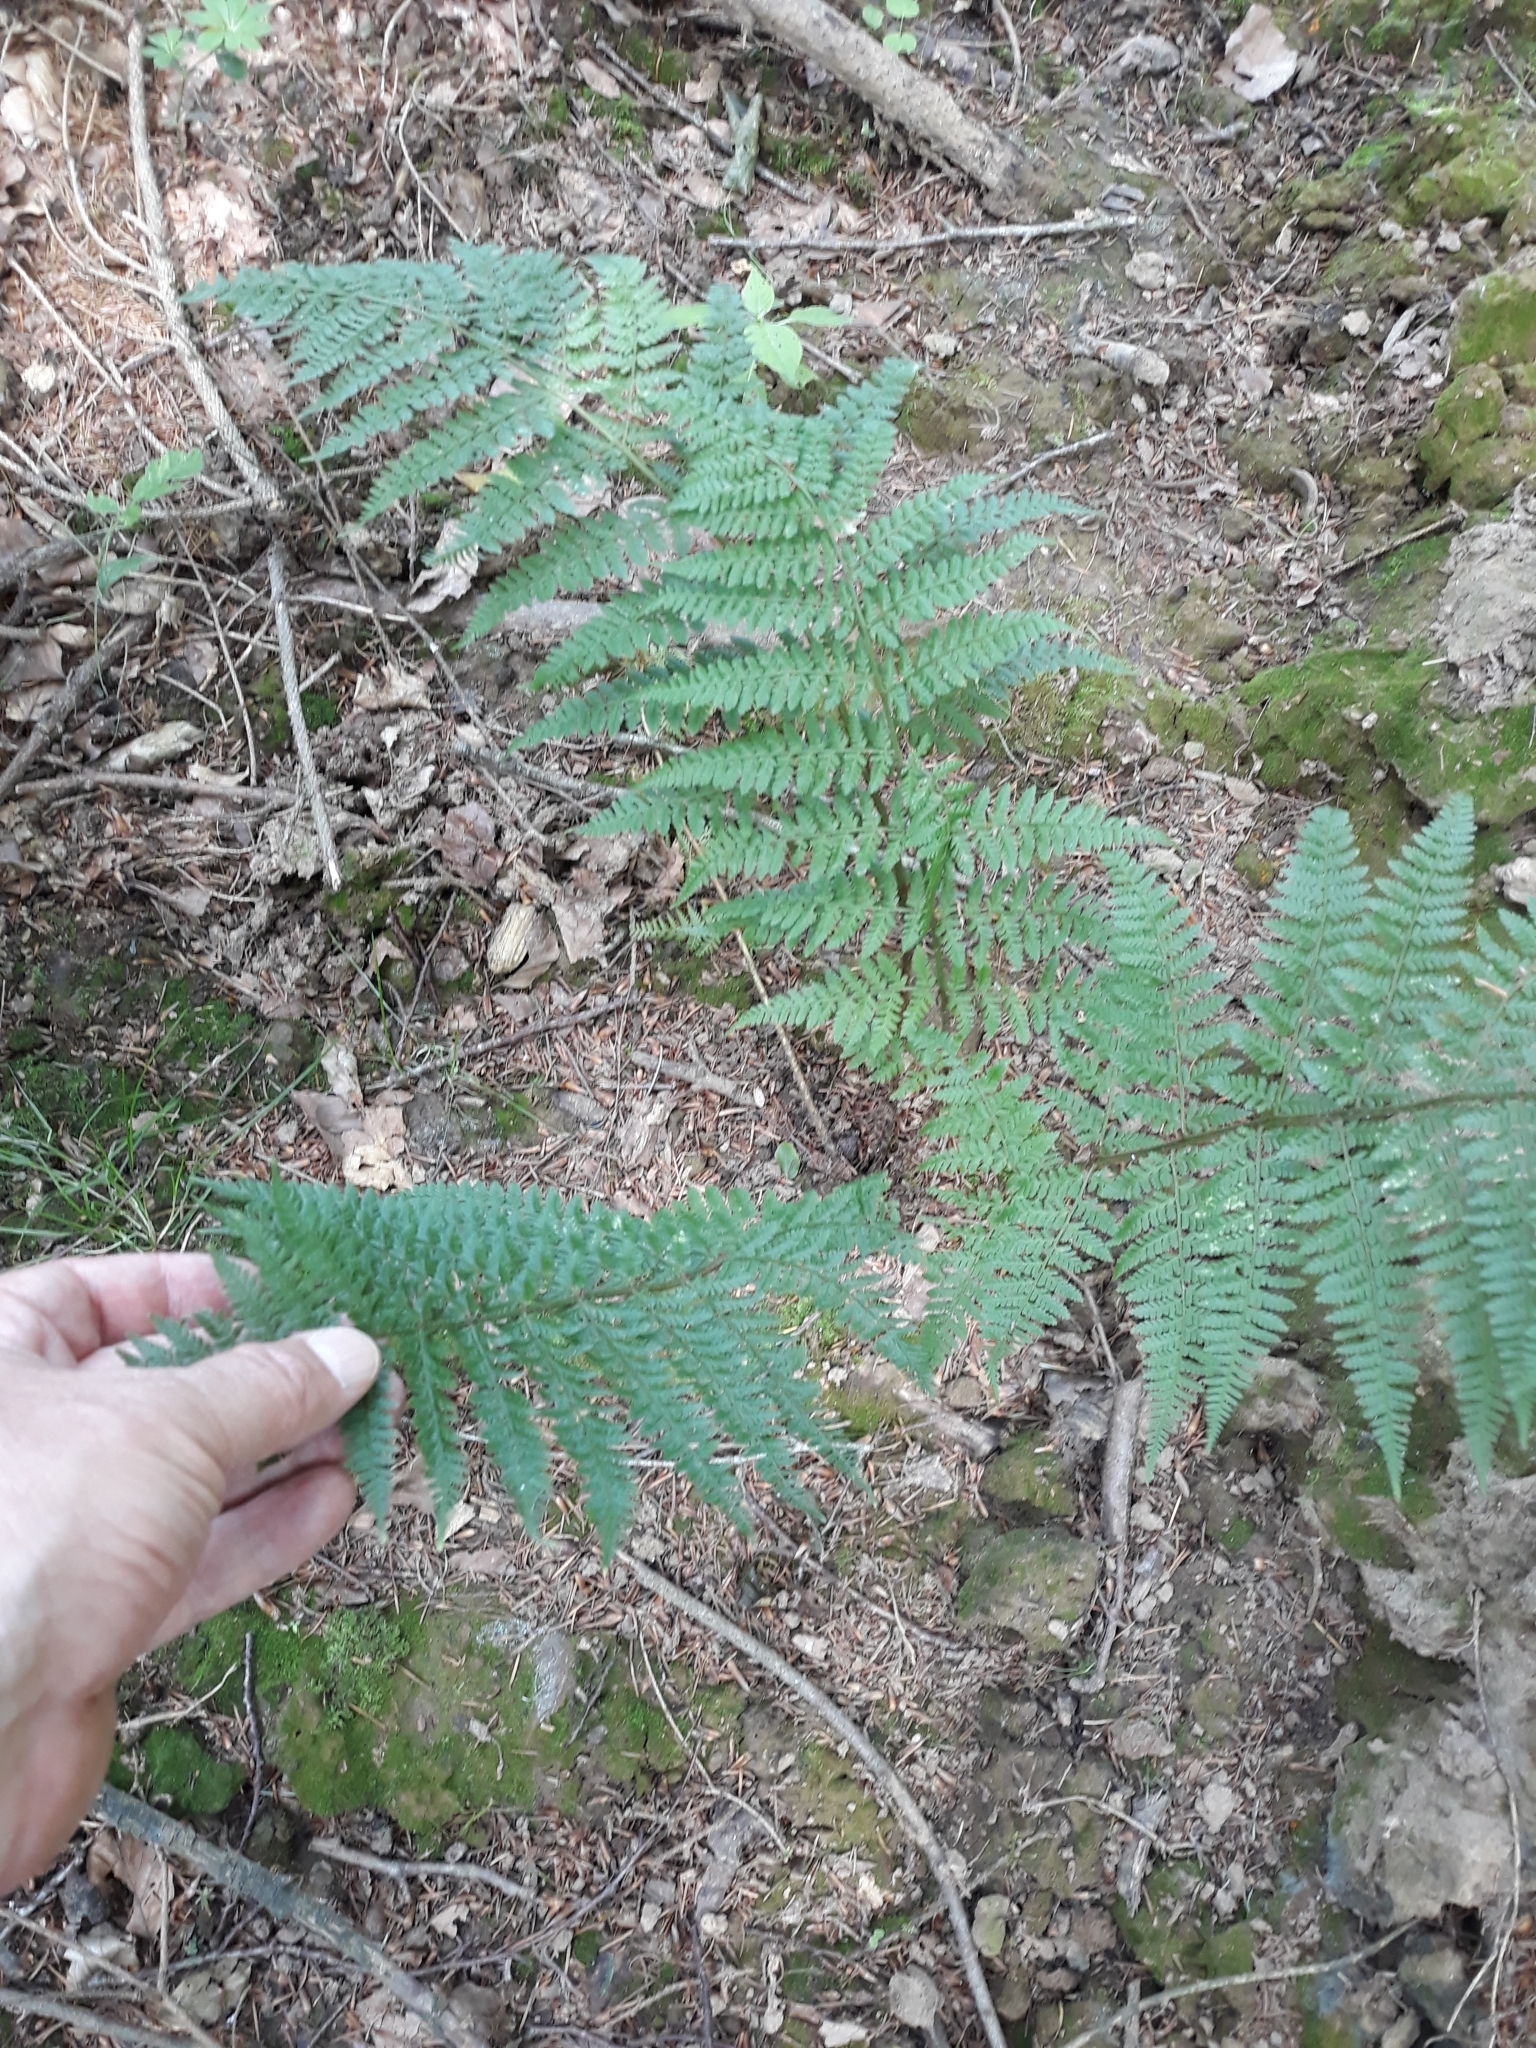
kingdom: Plantae
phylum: Tracheophyta
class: Polypodiopsida
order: Polypodiales
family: Athyriaceae
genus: Athyrium
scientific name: Athyrium filix-femina
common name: Lady fern
